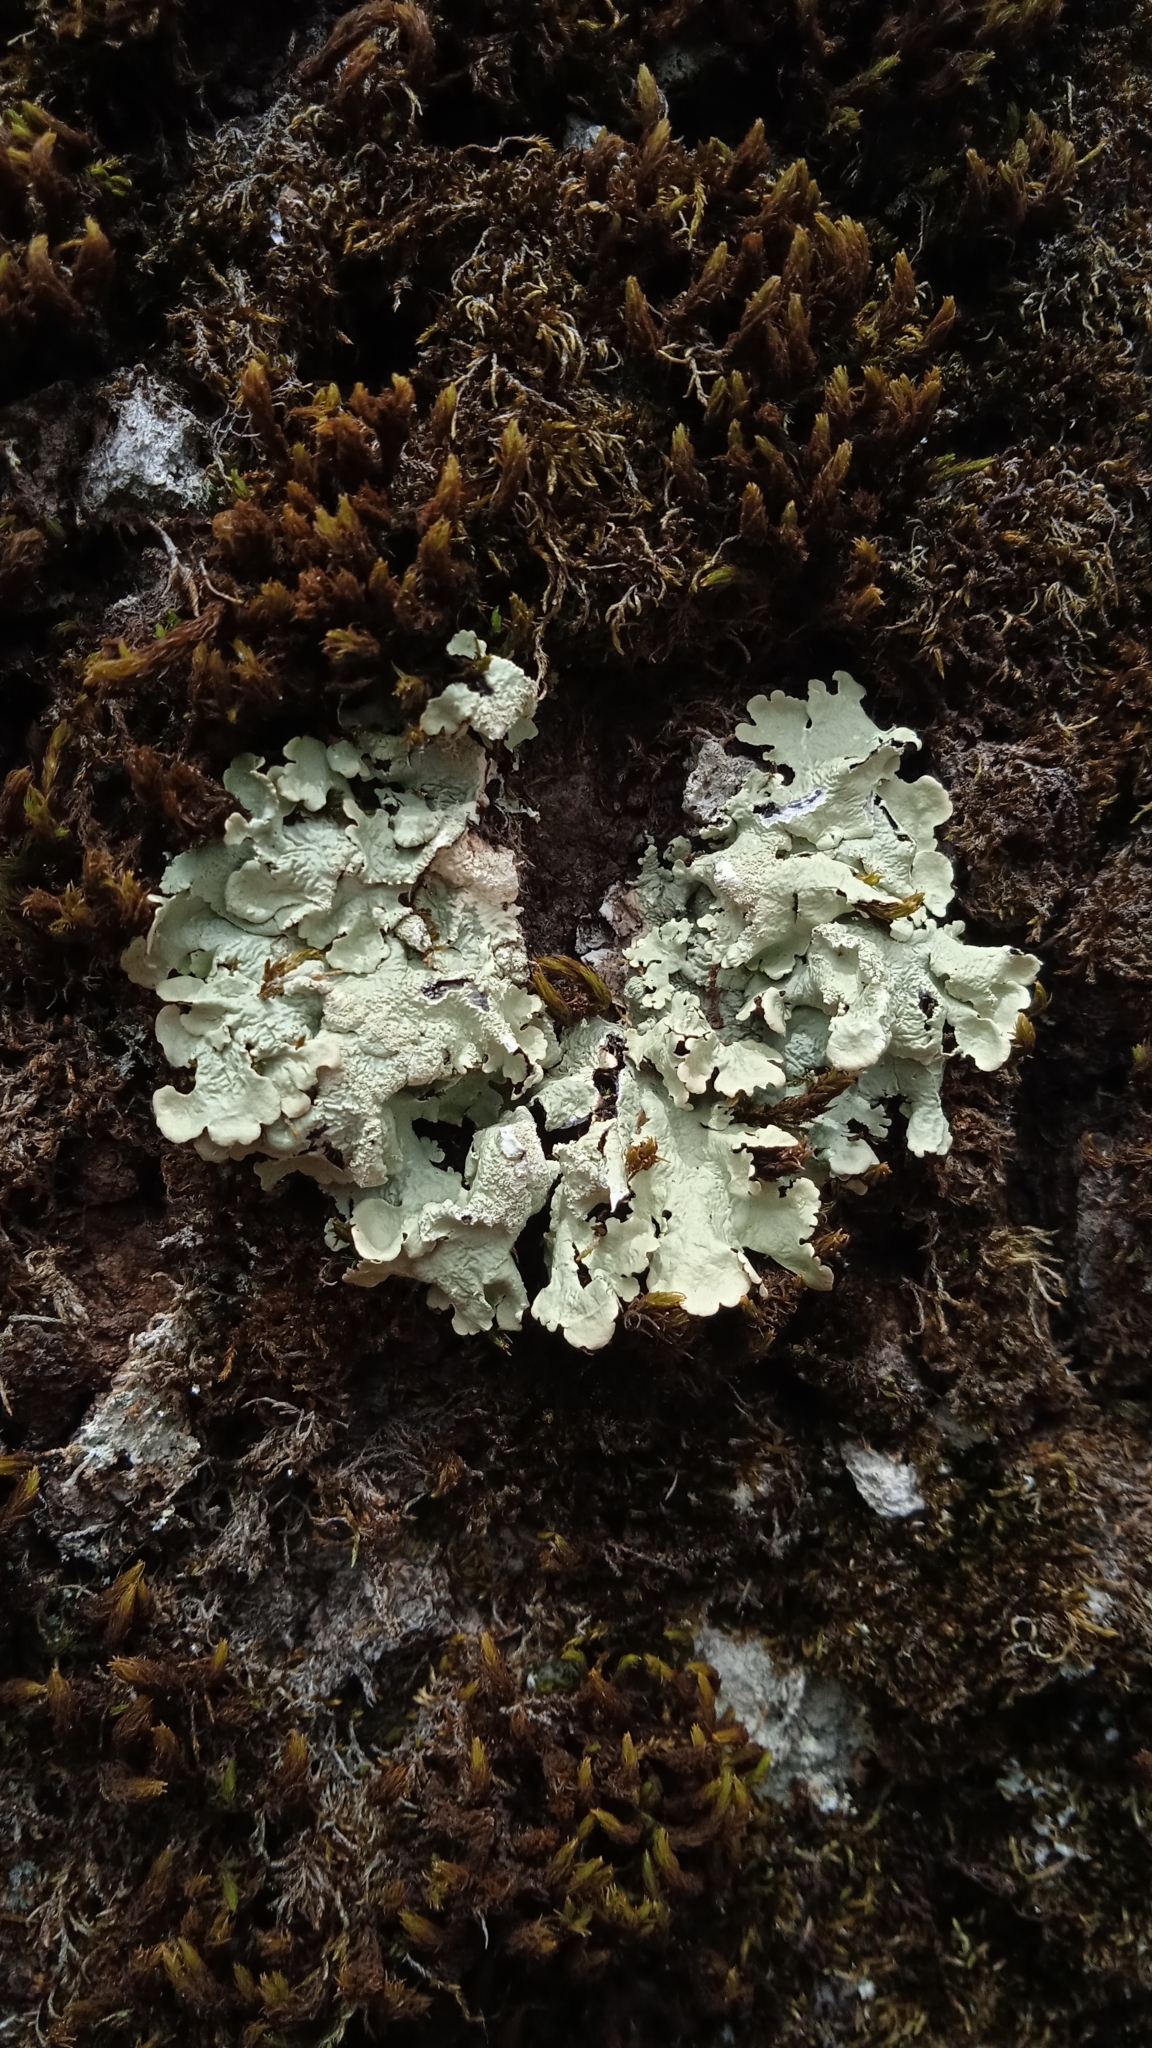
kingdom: Fungi
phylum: Ascomycota
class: Lecanoromycetes
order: Lecanorales
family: Parmeliaceae
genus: Flavoparmelia
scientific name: Flavoparmelia caperata
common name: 40-mile per hour lichen
